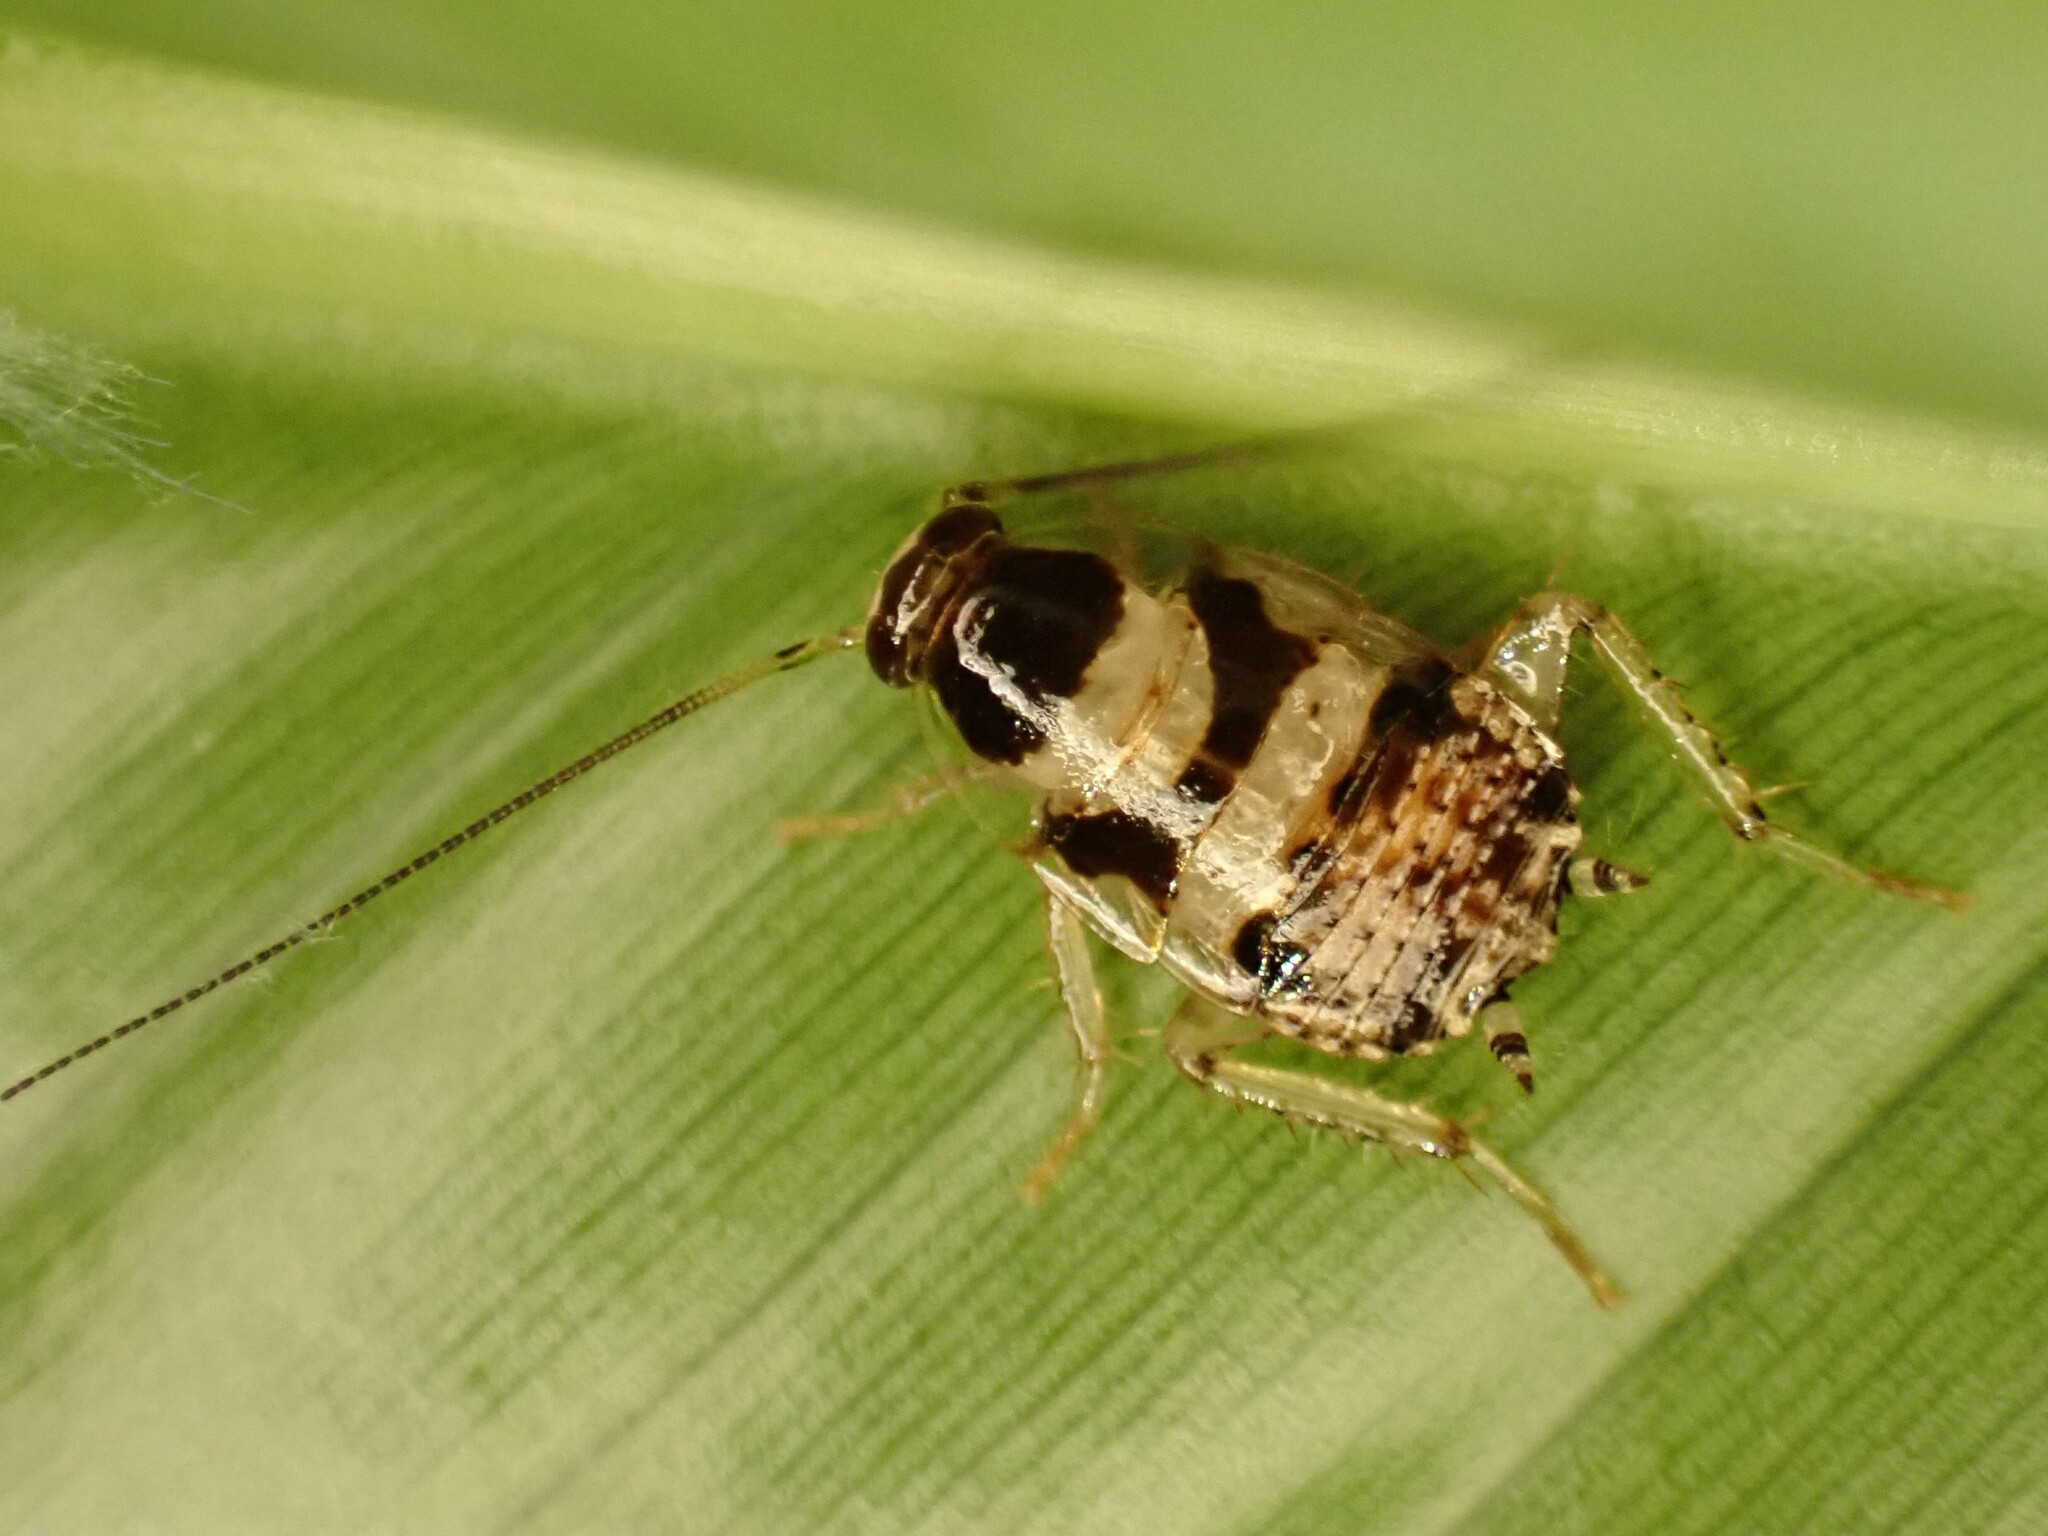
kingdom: Animalia
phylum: Arthropoda
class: Insecta
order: Blattodea
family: Ectobiidae
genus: Balta
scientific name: Balta notulata
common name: Cockroach
